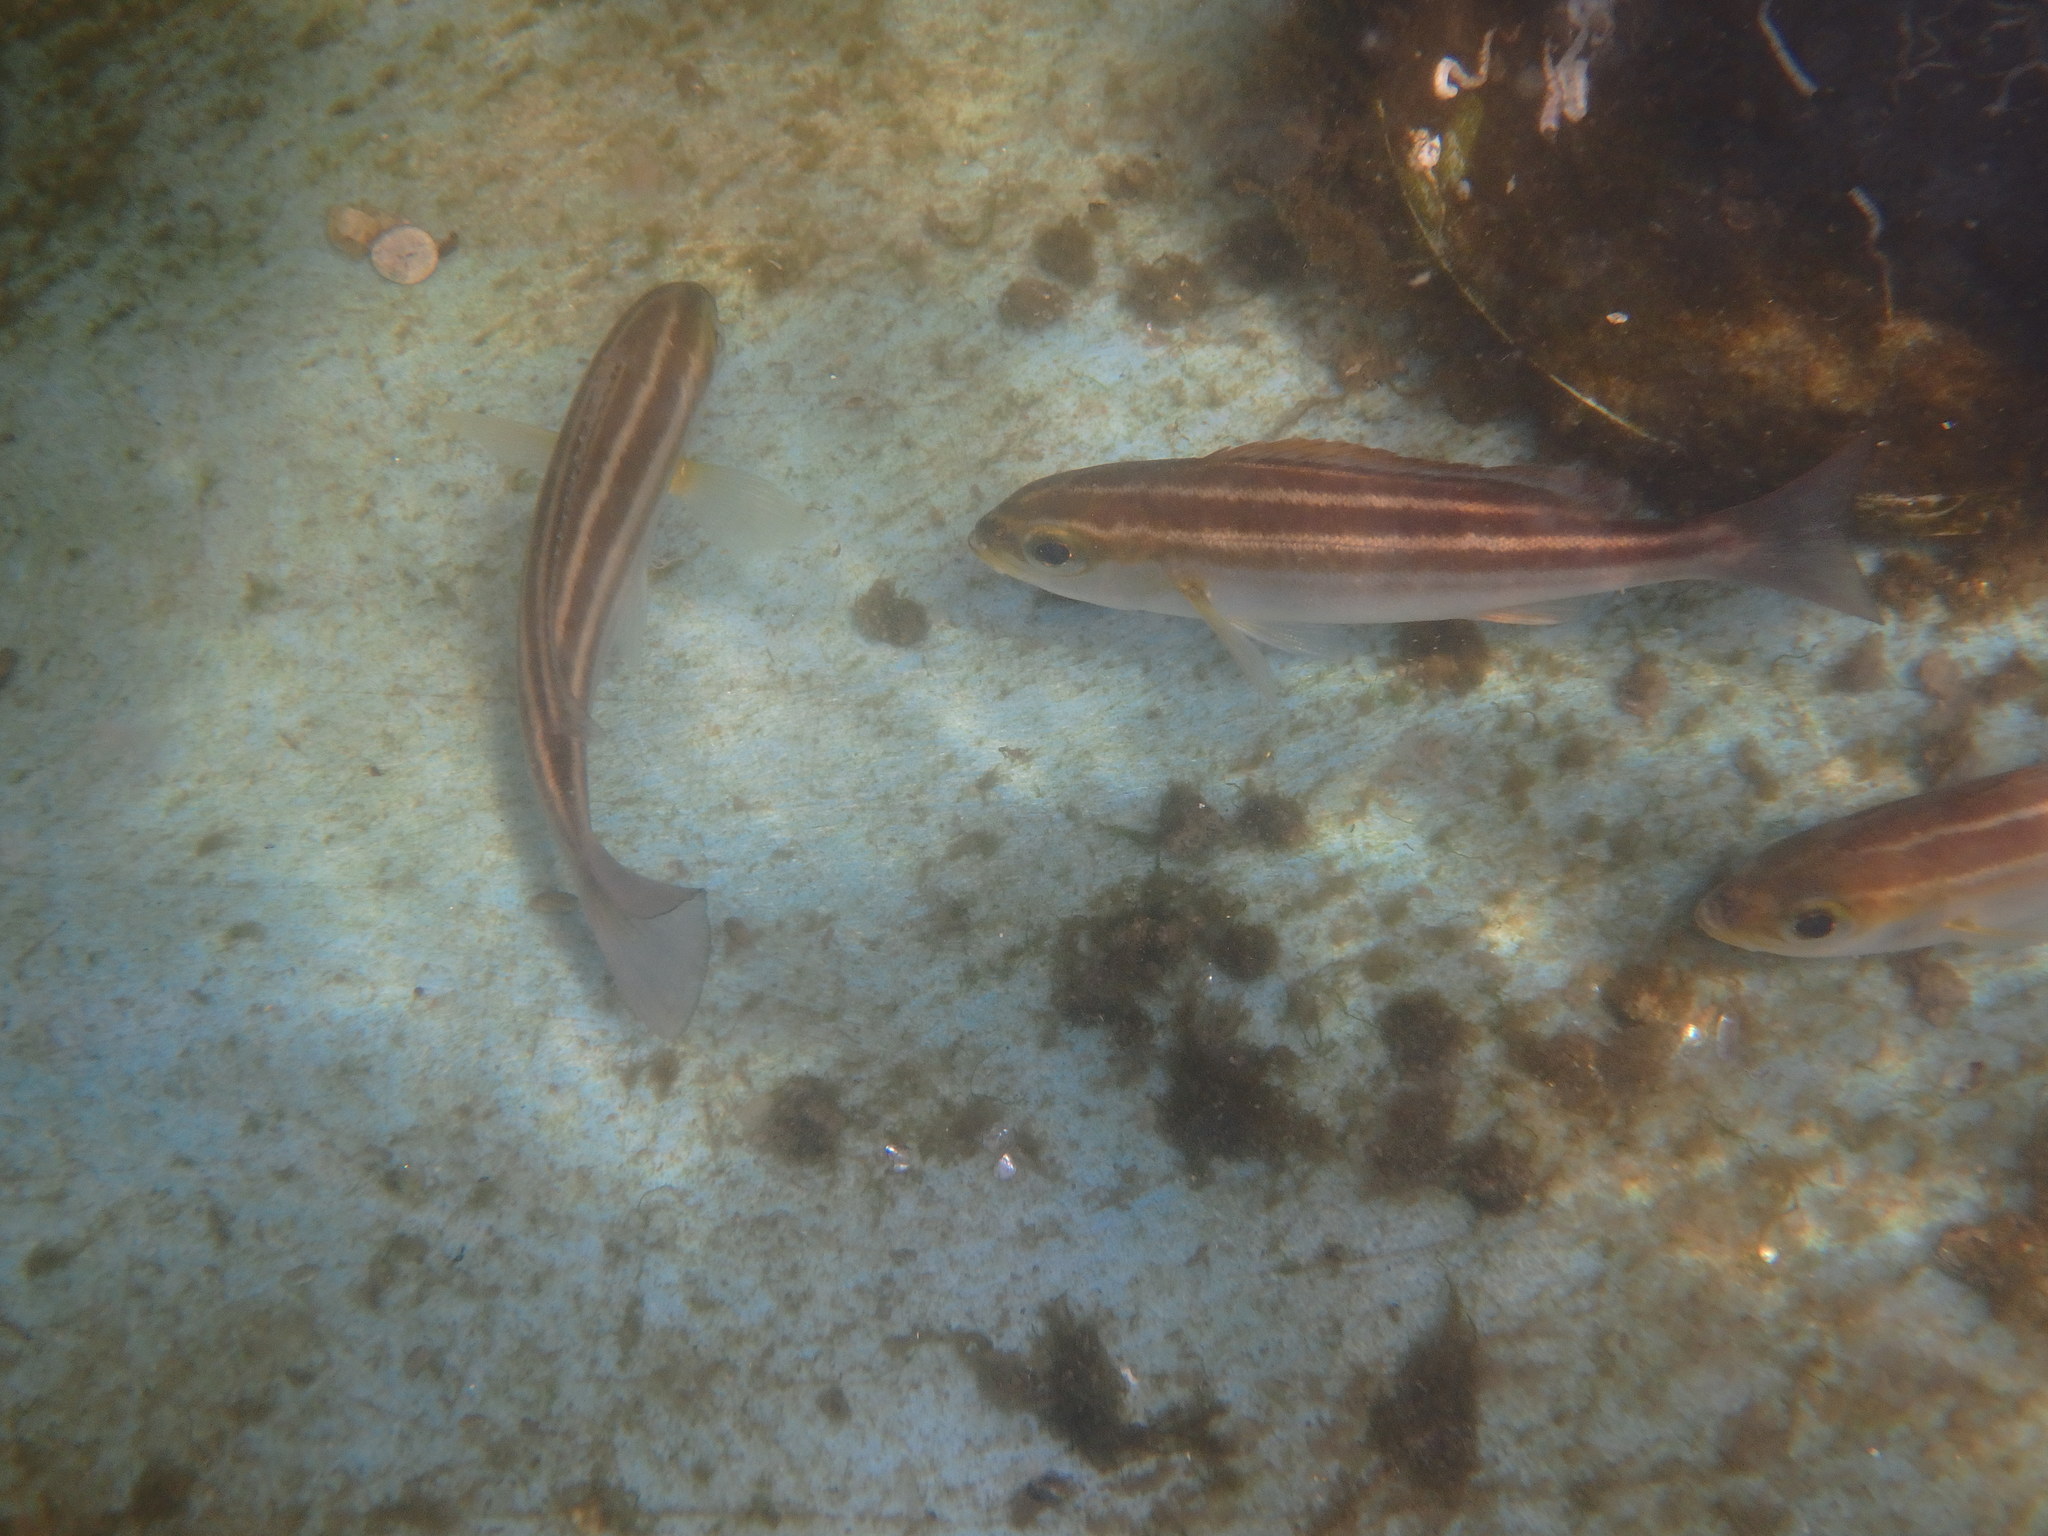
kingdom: Animalia
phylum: Chordata
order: Perciformes
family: Haemulidae
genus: Parapristipoma
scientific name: Parapristipoma trilineatum
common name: Chicken grunt
